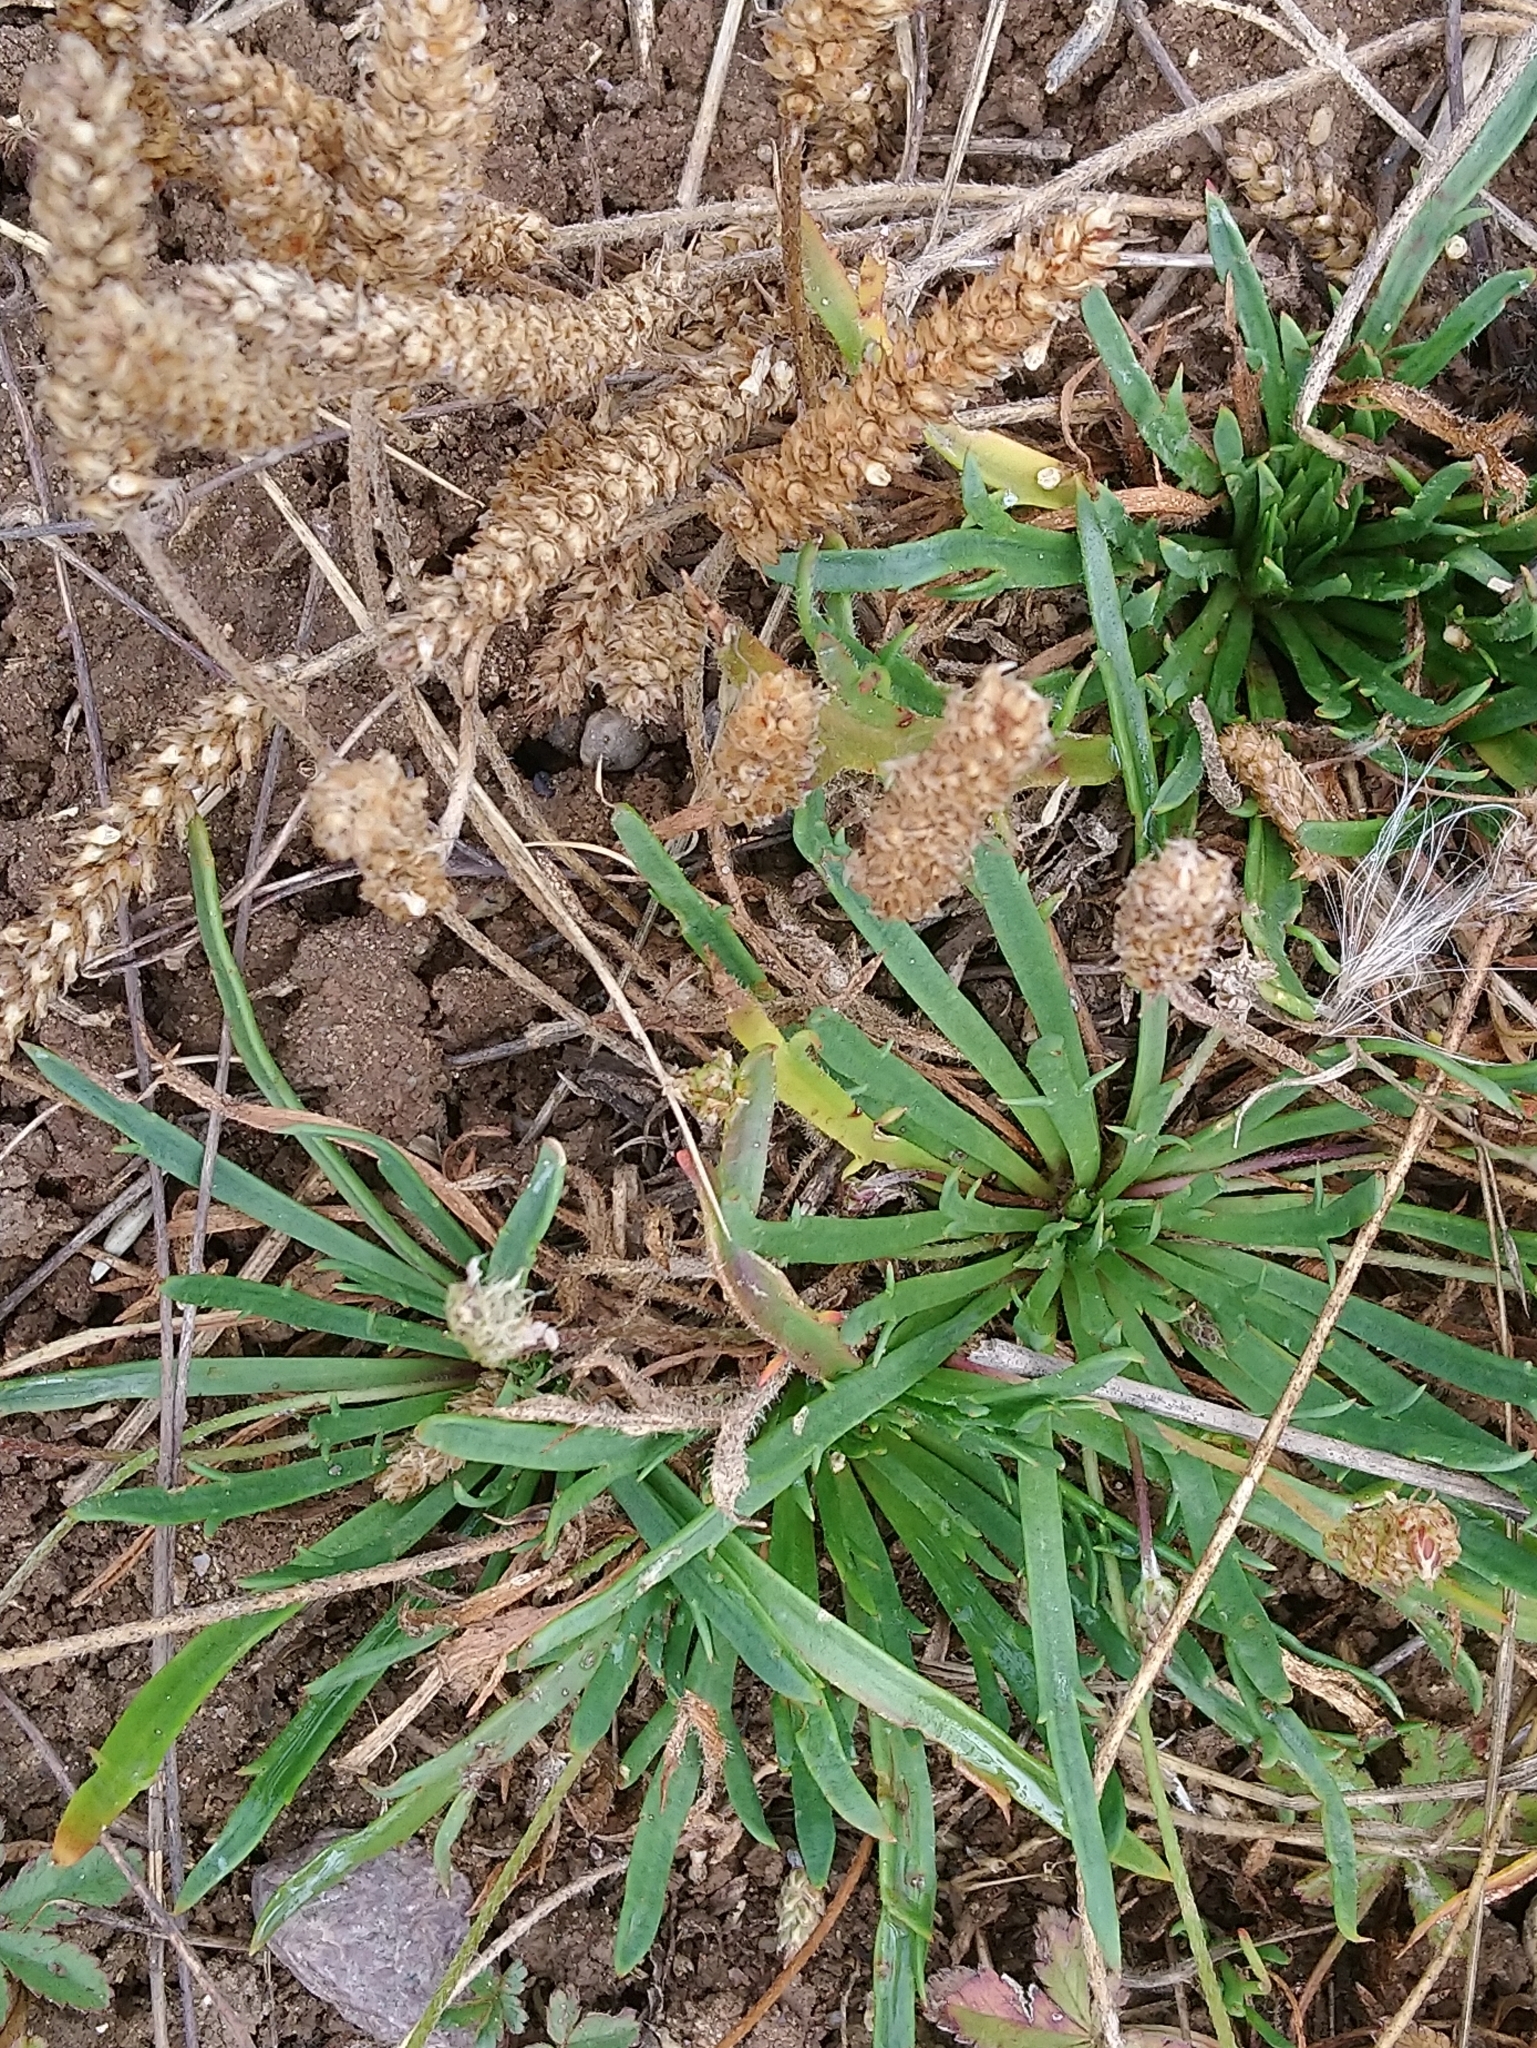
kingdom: Plantae
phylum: Tracheophyta
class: Magnoliopsida
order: Lamiales
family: Plantaginaceae
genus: Plantago
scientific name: Plantago coronopus
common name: Buck's-horn plantain
